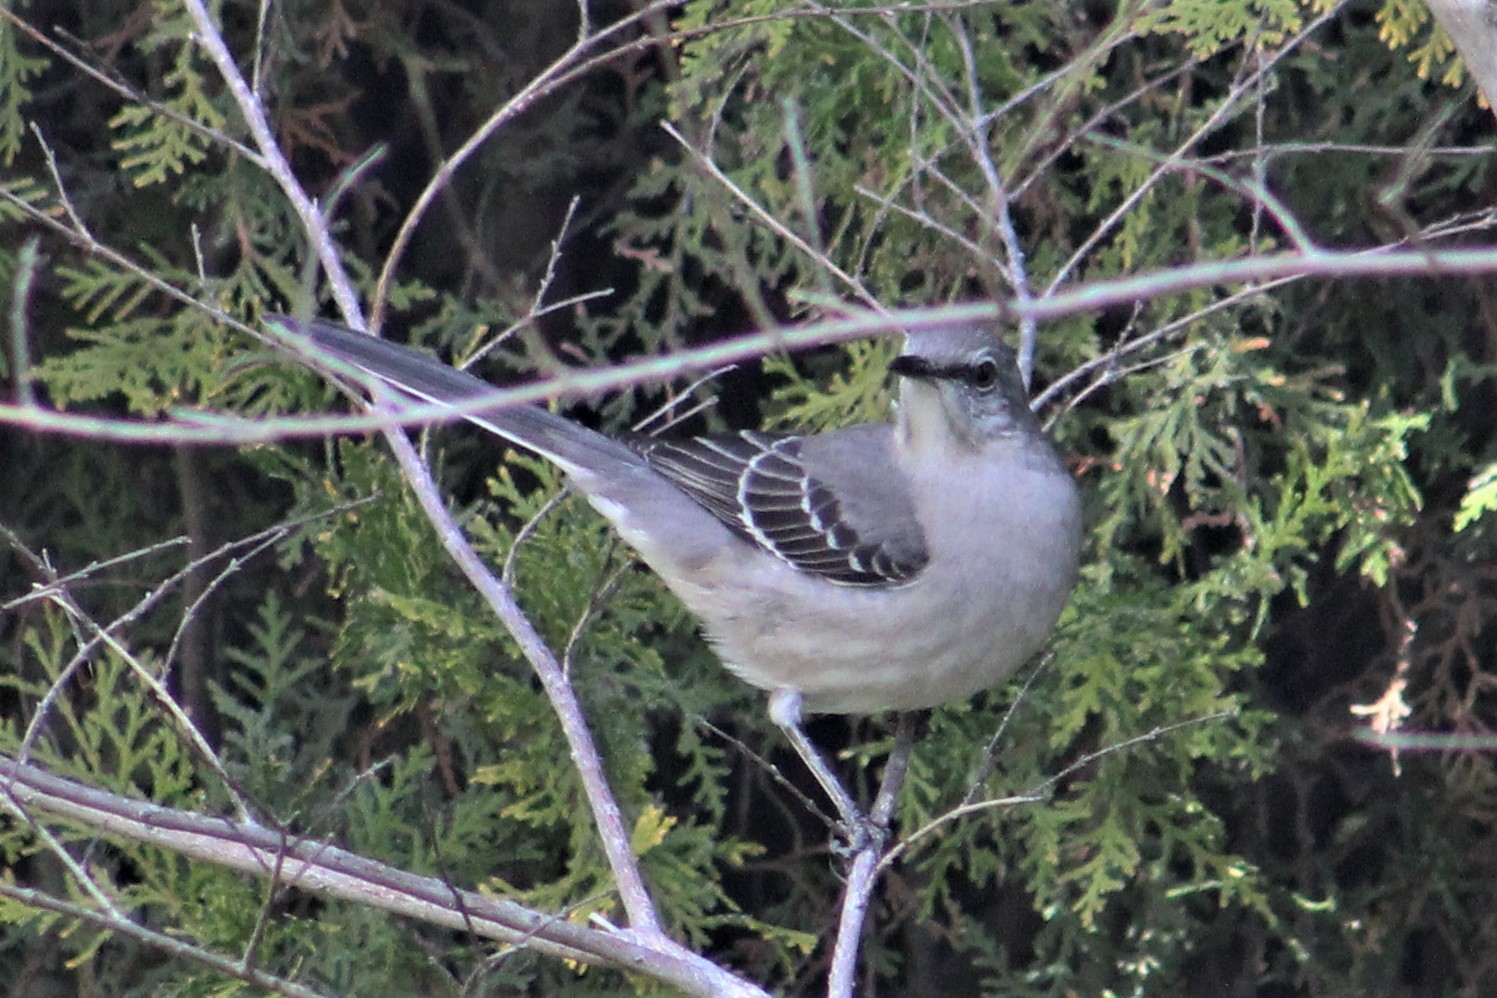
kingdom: Animalia
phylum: Chordata
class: Aves
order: Passeriformes
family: Mimidae
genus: Mimus
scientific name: Mimus polyglottos
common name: Northern mockingbird
